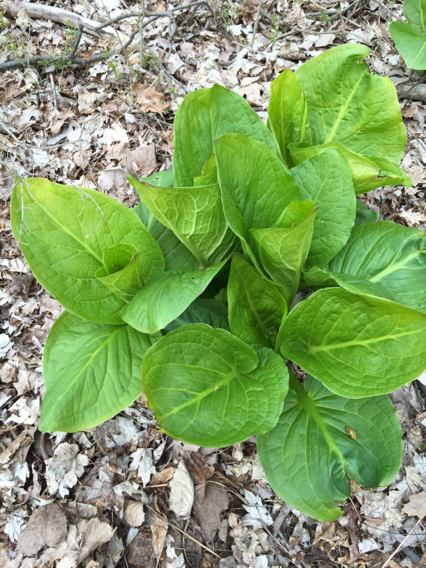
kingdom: Plantae
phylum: Tracheophyta
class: Liliopsida
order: Alismatales
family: Araceae
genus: Symplocarpus
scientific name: Symplocarpus foetidus
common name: Eastern skunk cabbage
